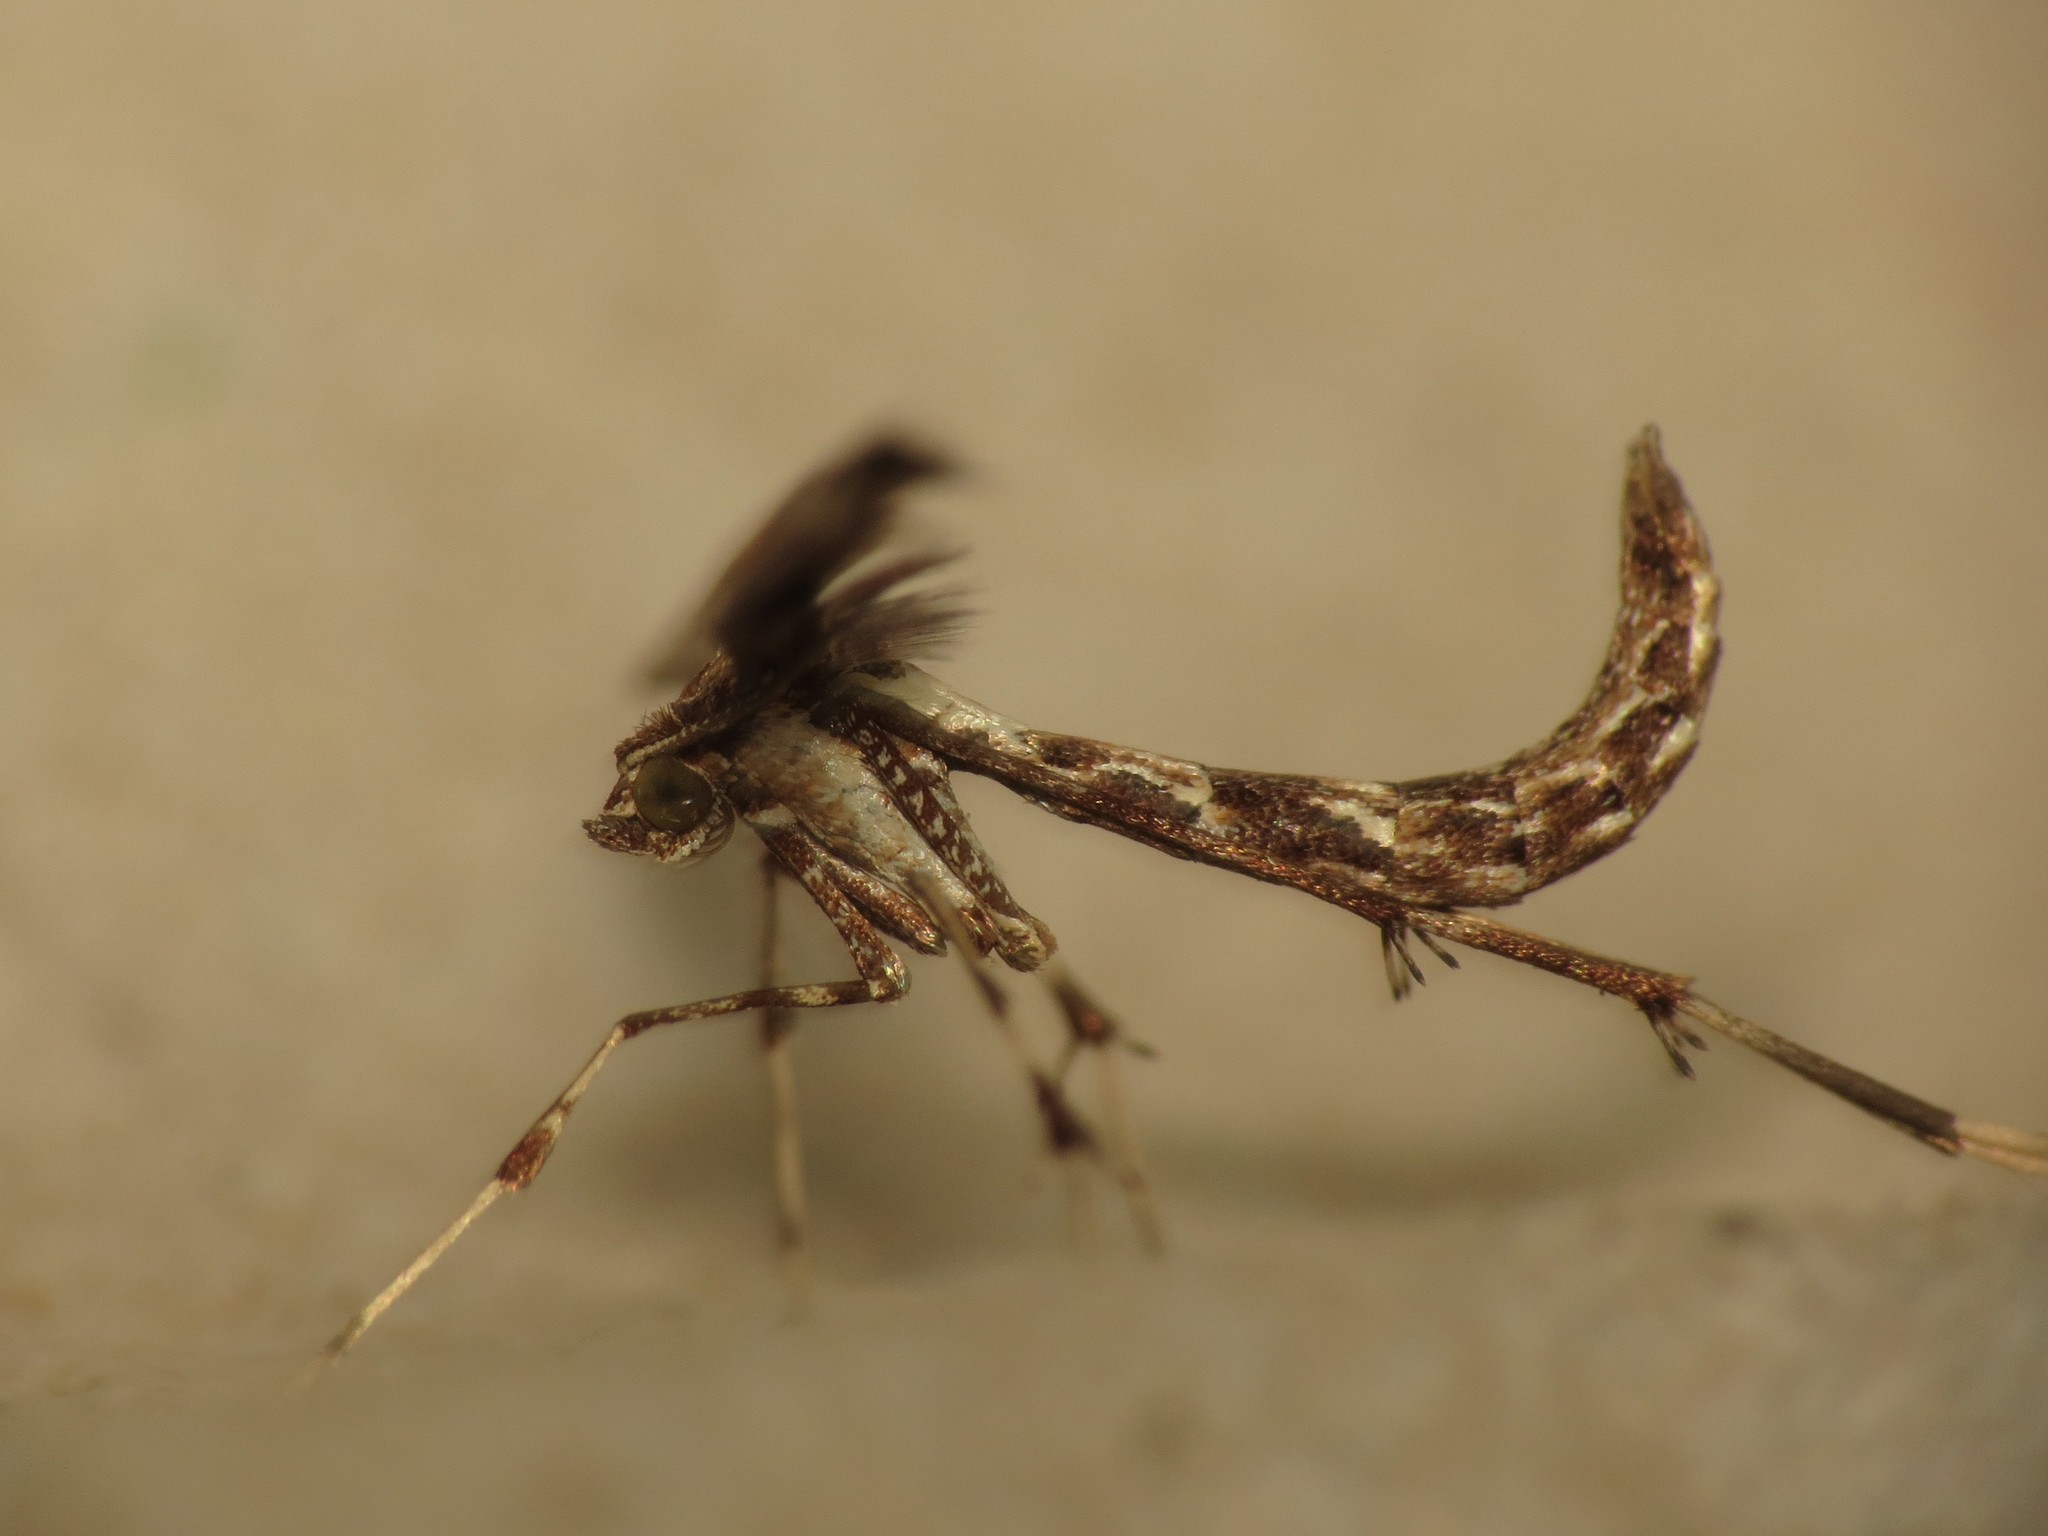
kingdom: Animalia
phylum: Arthropoda
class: Insecta
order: Lepidoptera
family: Pterophoridae
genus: Amblyptilia
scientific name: Amblyptilia acanthadactyla
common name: Beautiful plume
